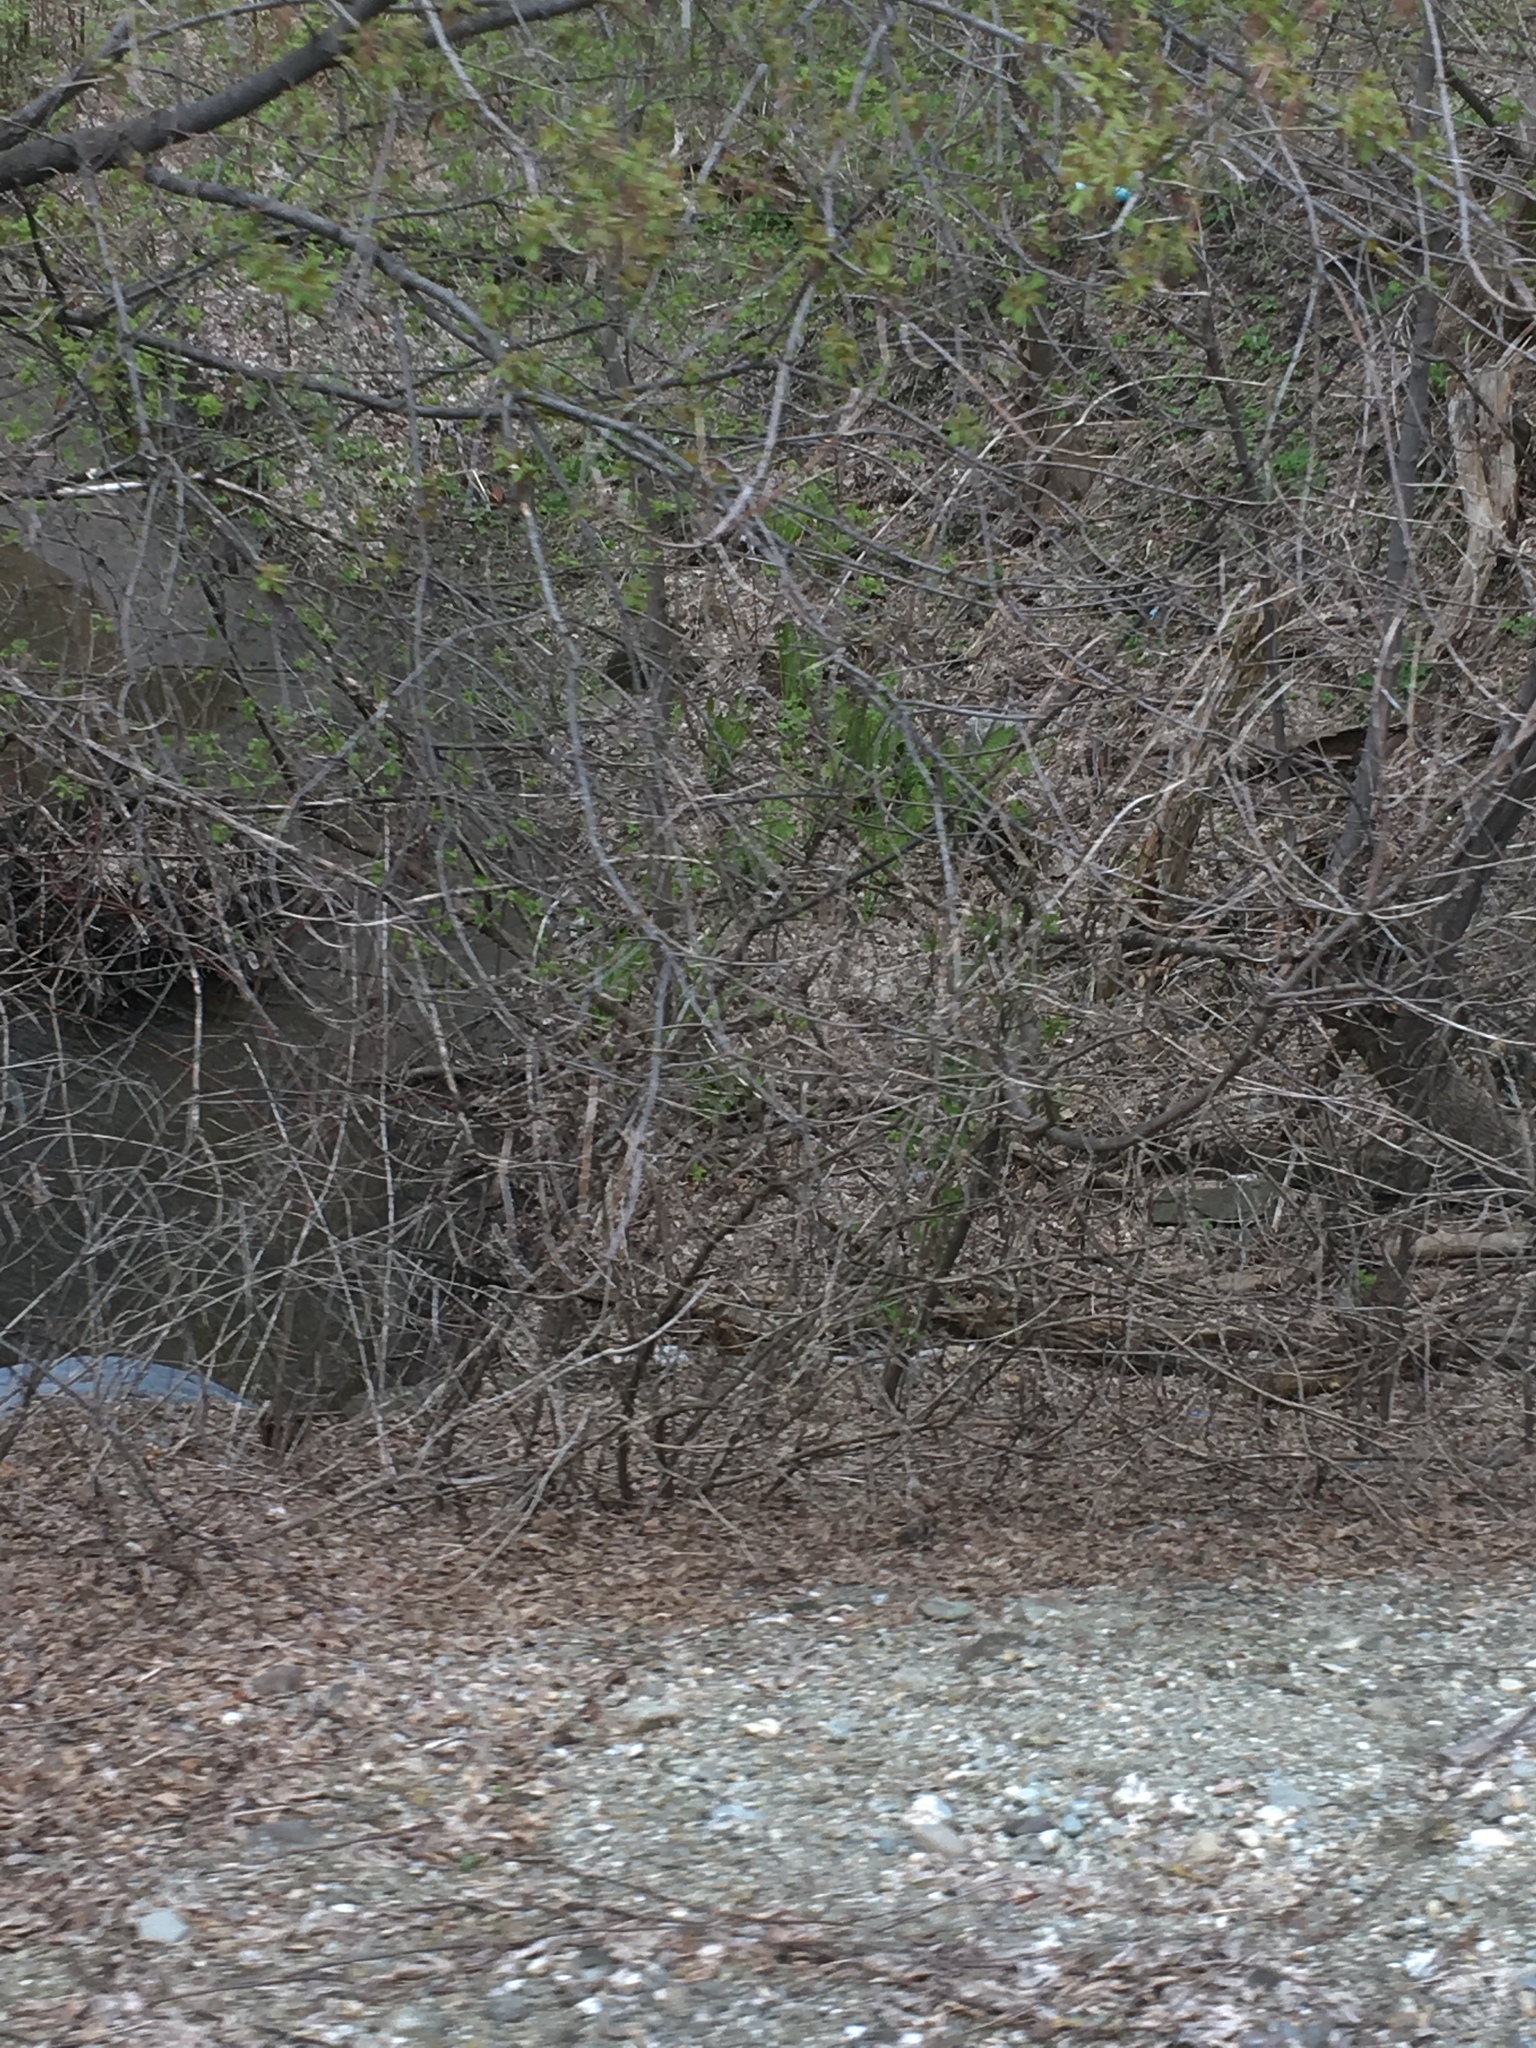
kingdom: Plantae
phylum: Tracheophyta
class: Polypodiopsida
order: Polypodiales
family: Onocleaceae
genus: Matteuccia
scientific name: Matteuccia struthiopteris
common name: Ostrich fern
